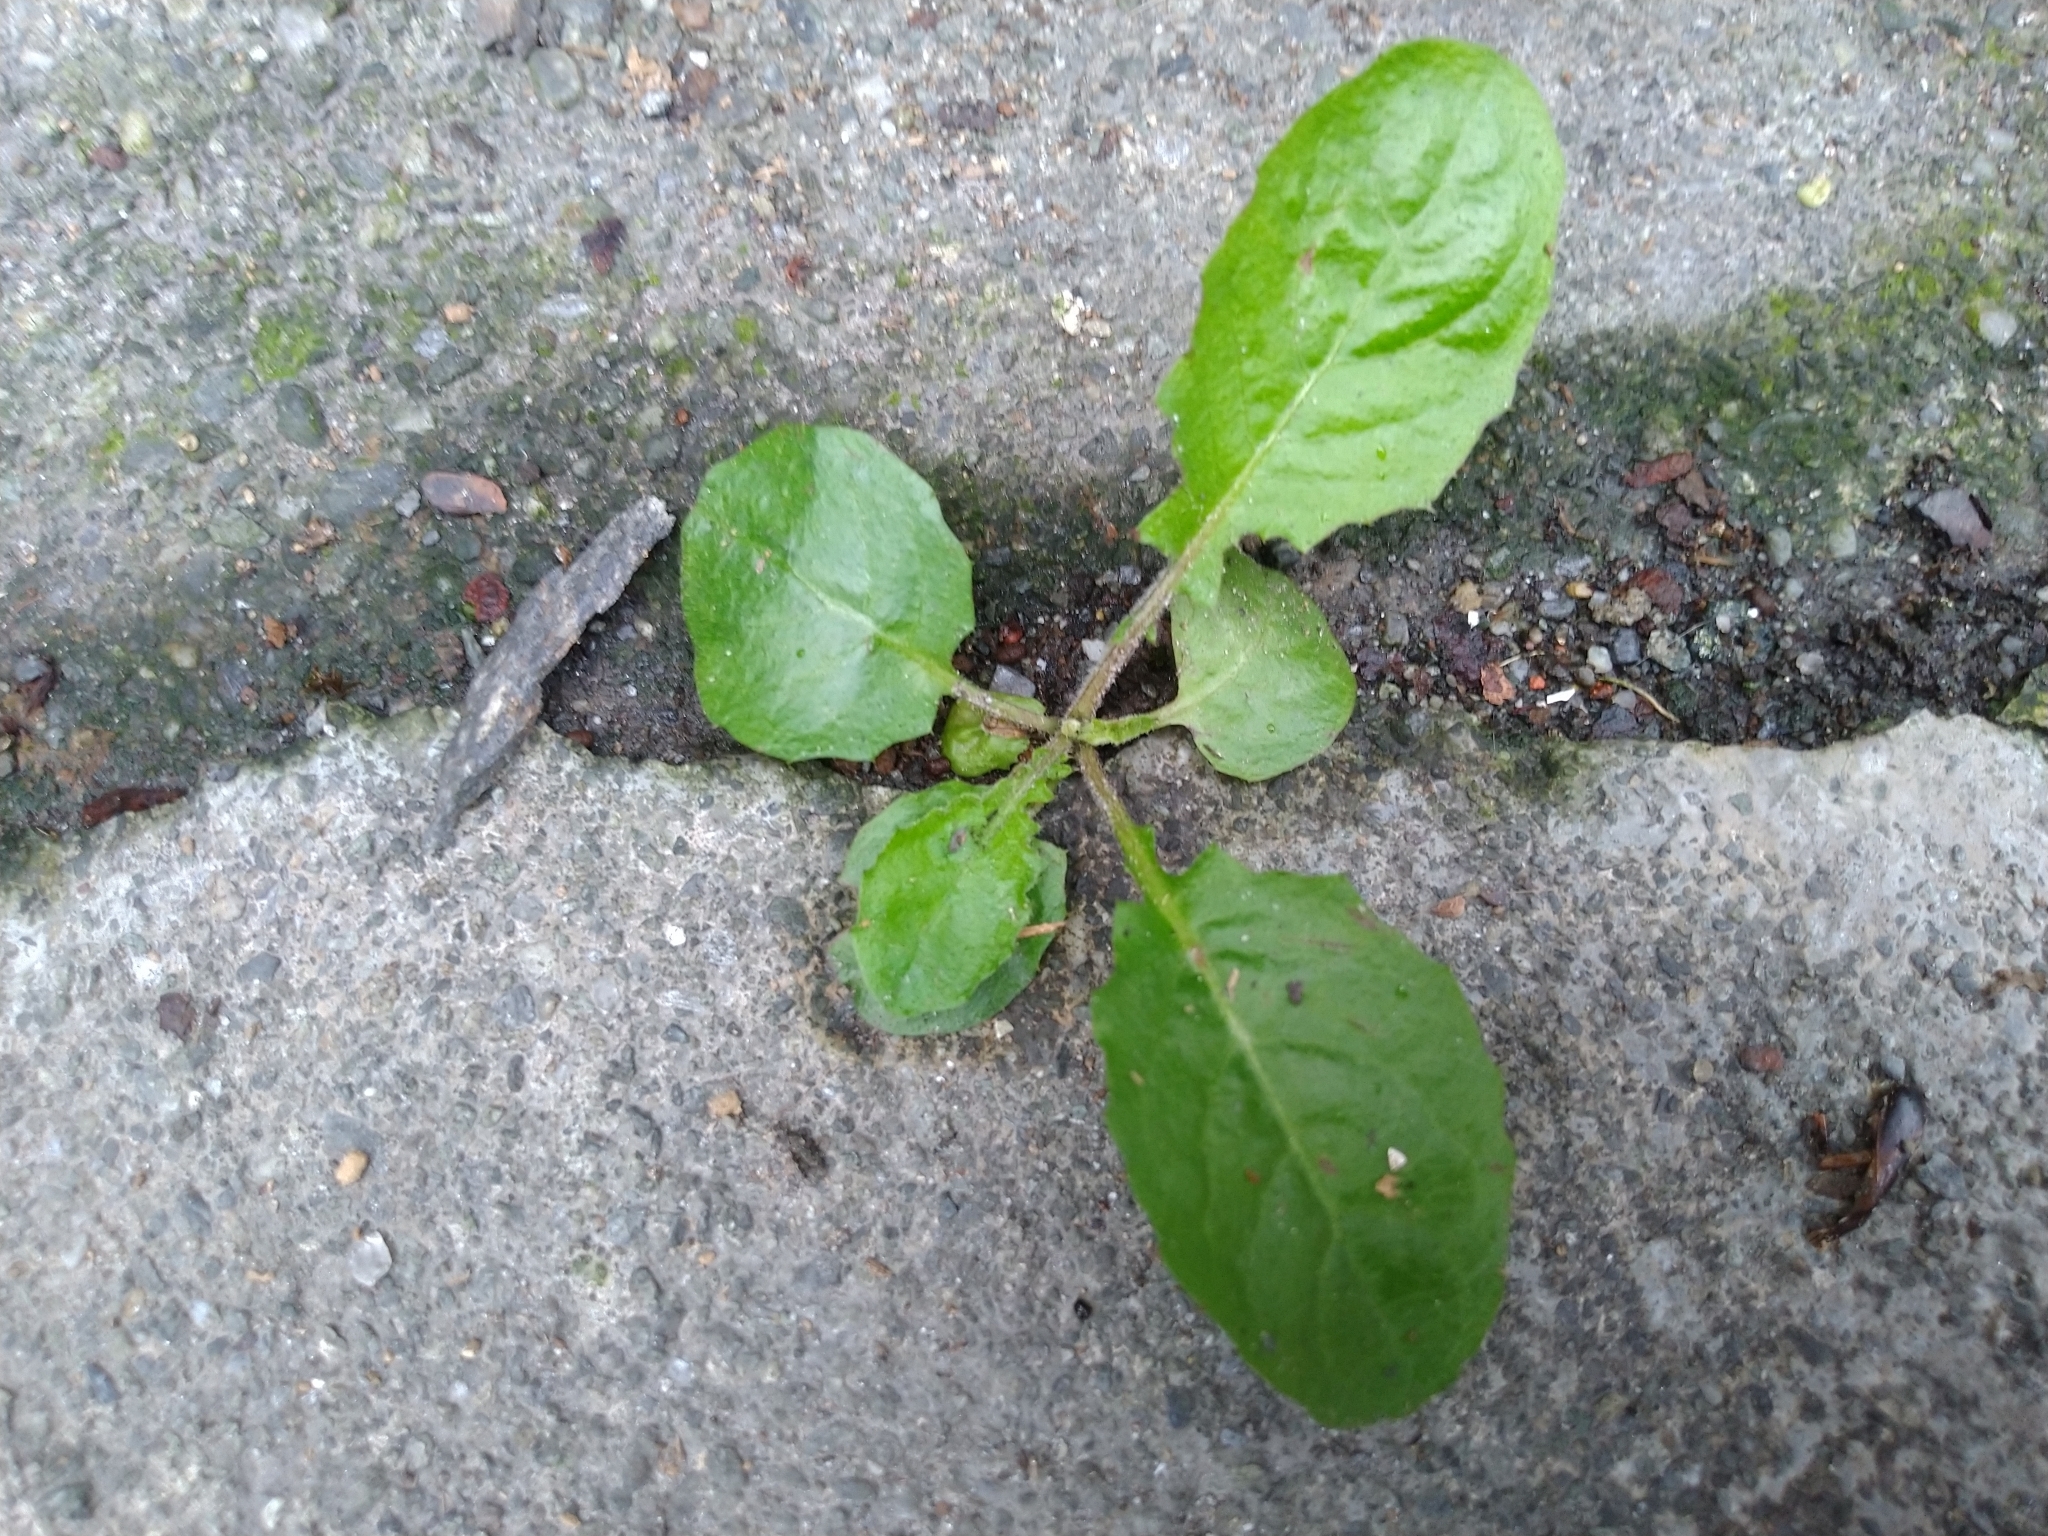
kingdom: Plantae
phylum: Tracheophyta
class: Magnoliopsida
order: Asterales
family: Asteraceae
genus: Youngia
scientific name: Youngia japonica
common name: Oriental false hawksbeard
